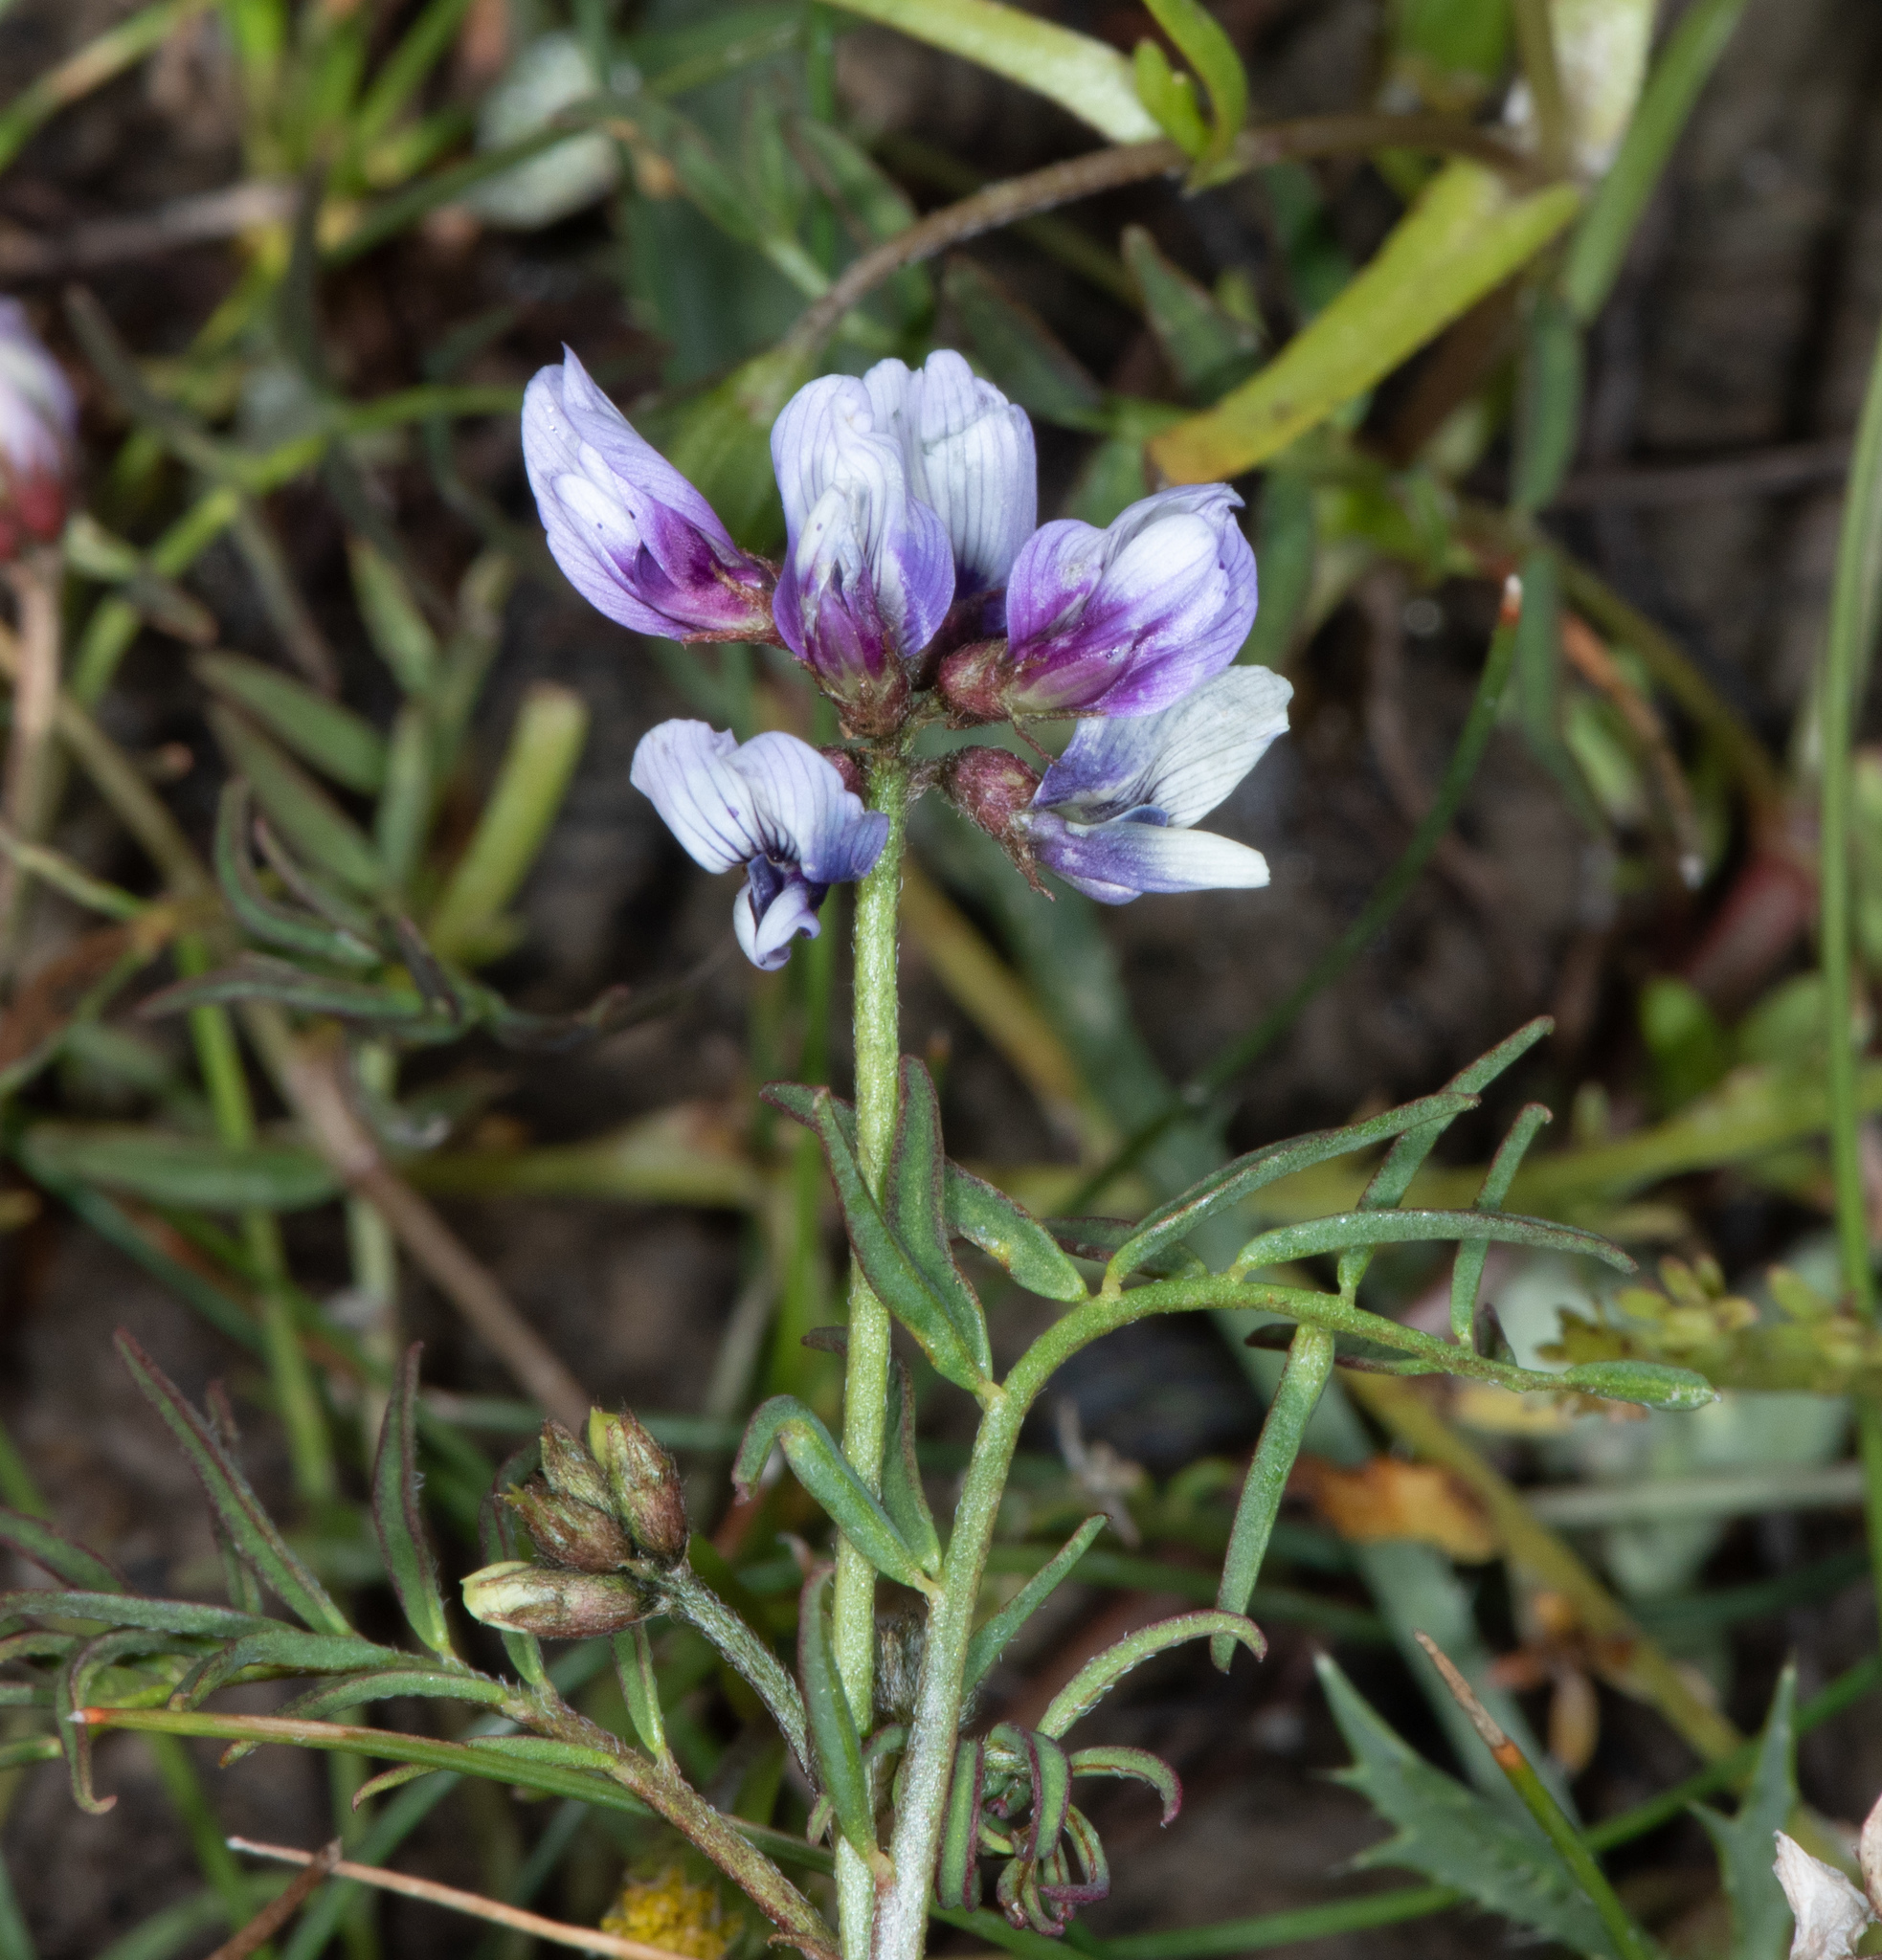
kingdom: Plantae
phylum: Tracheophyta
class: Magnoliopsida
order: Fabales
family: Fabaceae
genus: Astragalus
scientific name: Astragalus tener
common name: Gray slender milkvetch
